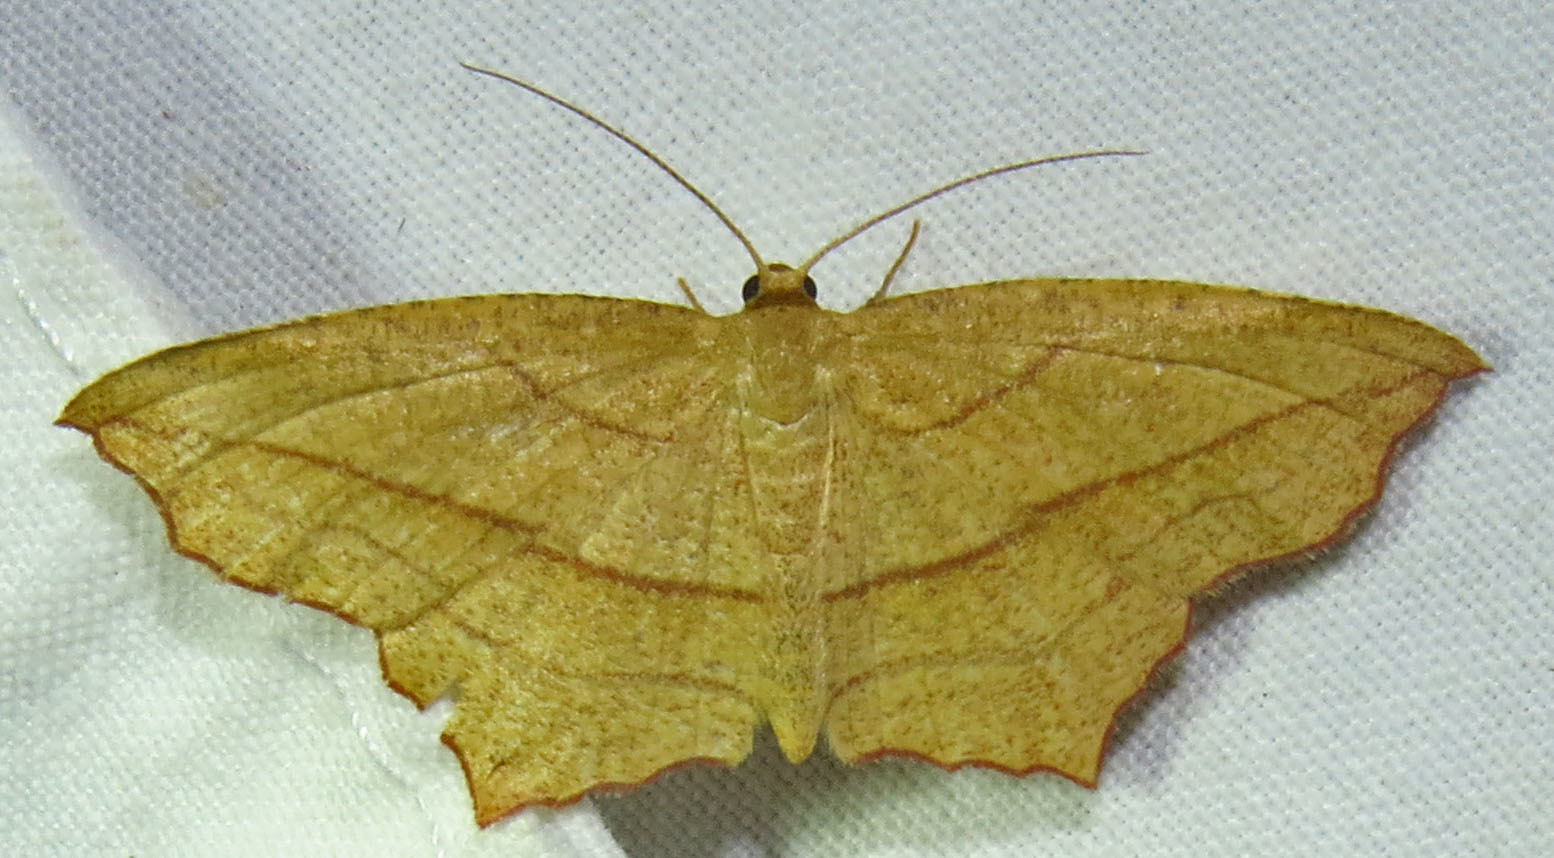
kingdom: Animalia
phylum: Arthropoda
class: Insecta
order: Lepidoptera
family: Geometridae
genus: Timandra
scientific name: Timandra amaturaria
